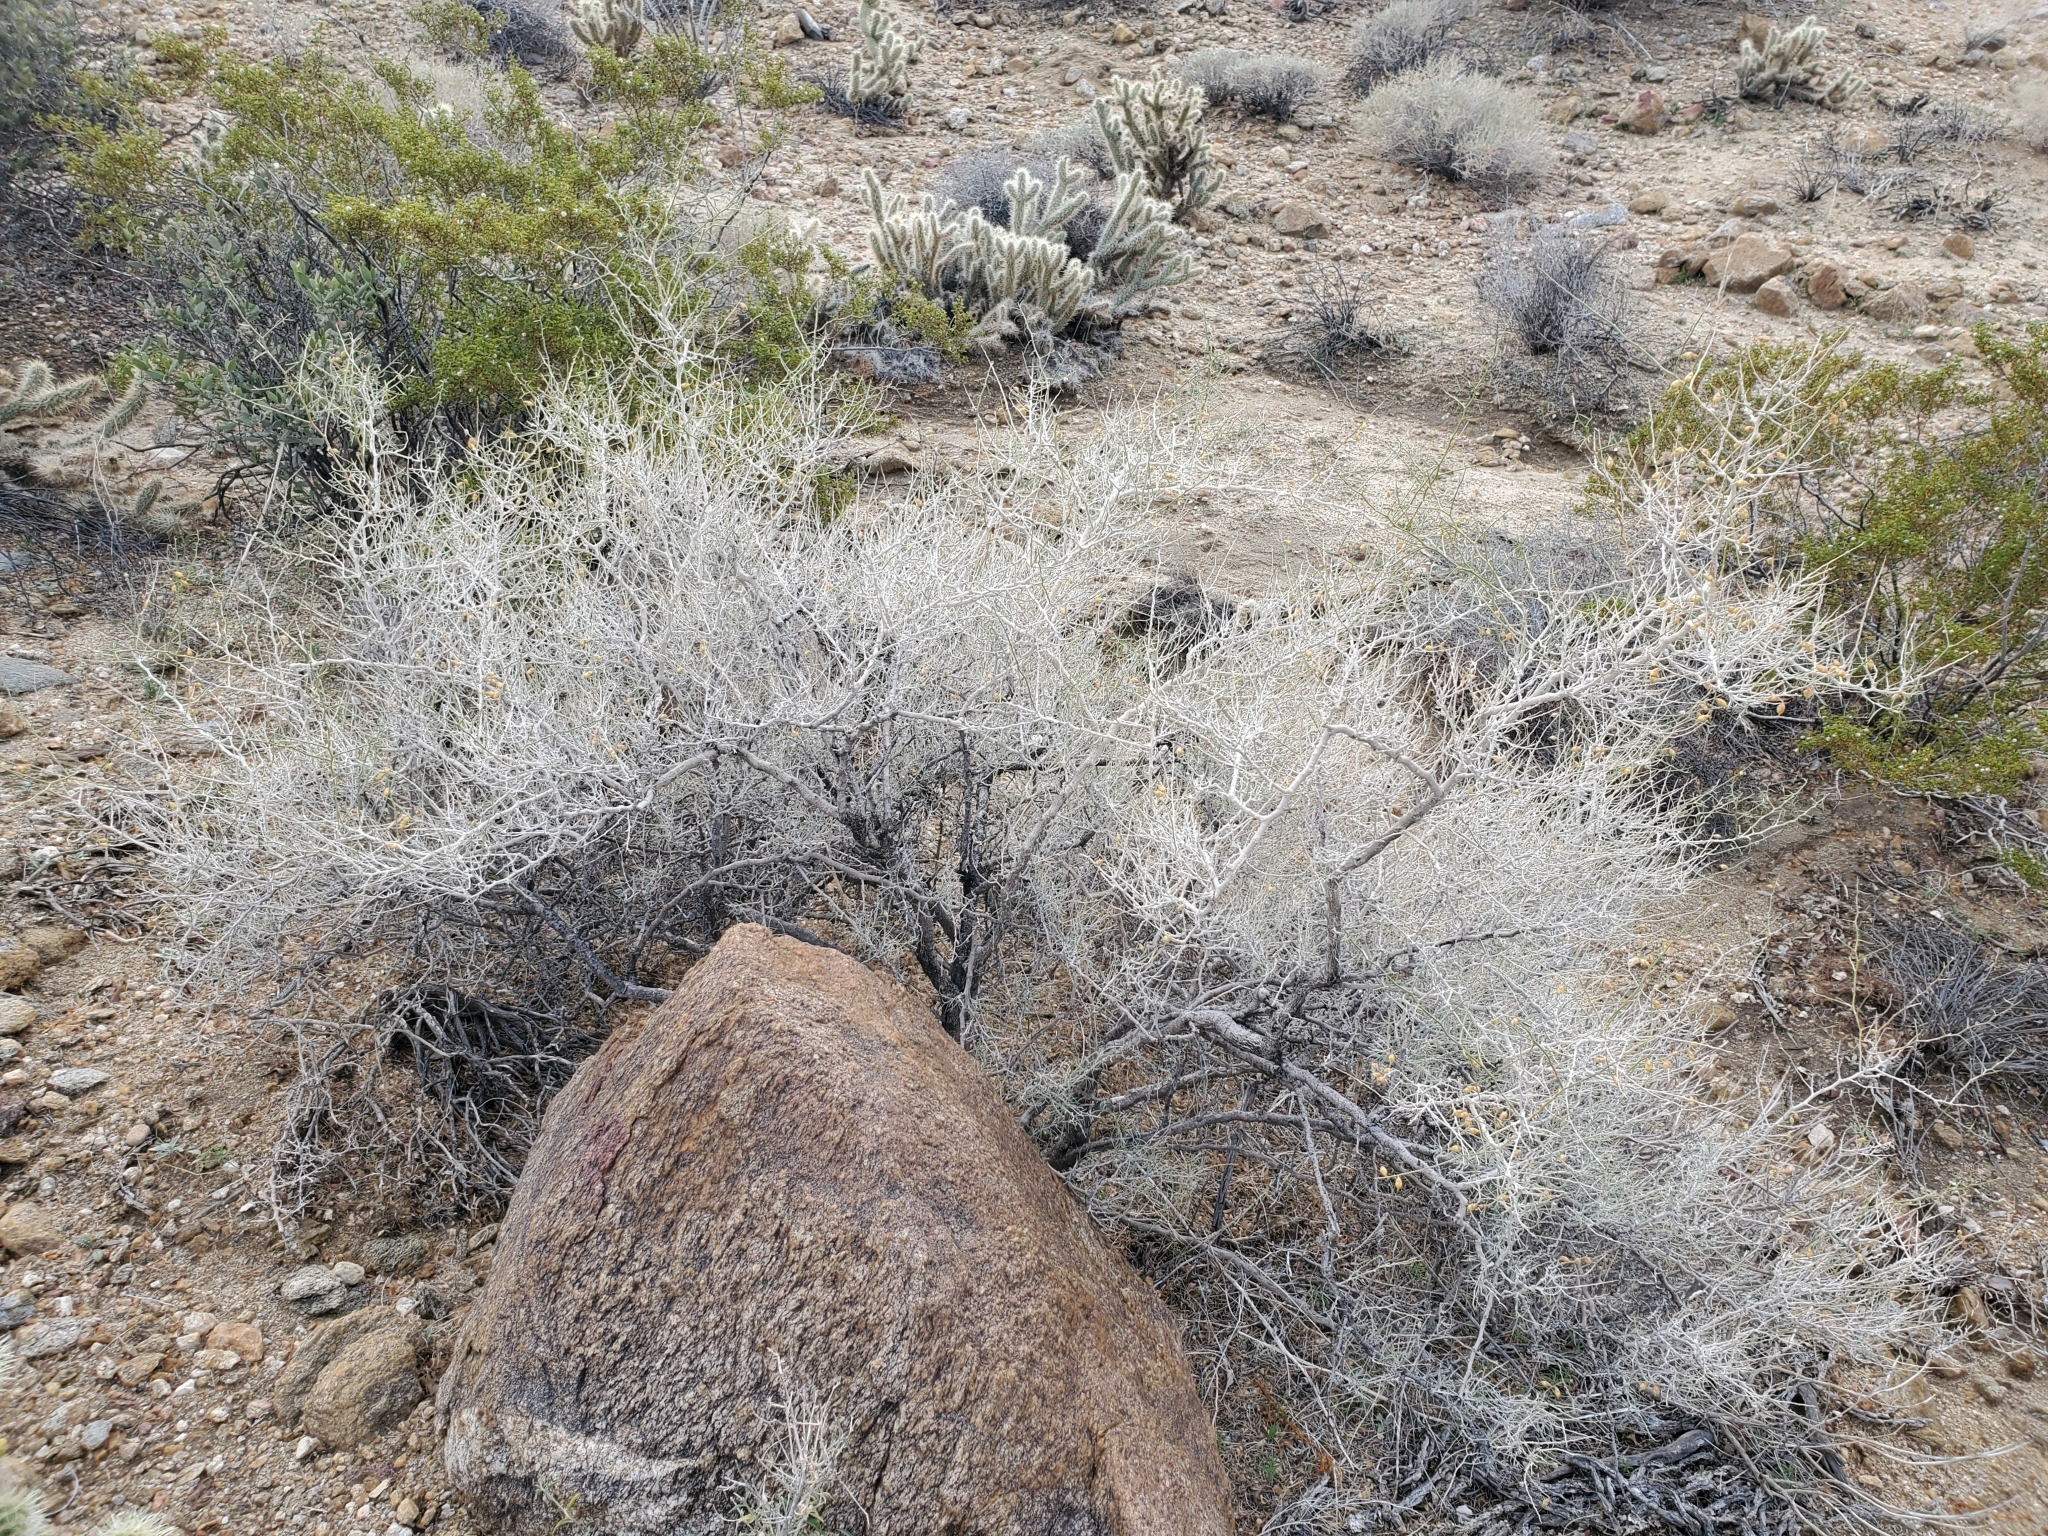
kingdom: Plantae
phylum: Tracheophyta
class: Magnoliopsida
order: Fabales
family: Fabaceae
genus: Psorothamnus
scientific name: Psorothamnus schottii
